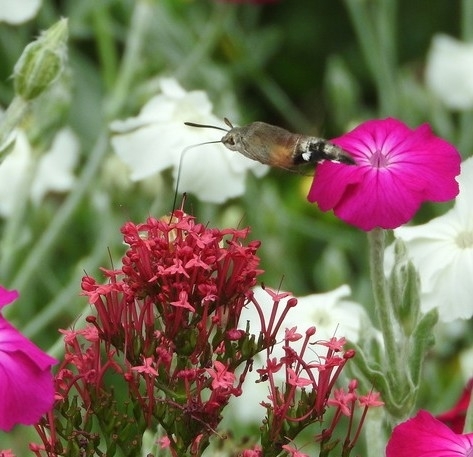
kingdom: Animalia
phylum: Arthropoda
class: Insecta
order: Lepidoptera
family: Sphingidae
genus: Macroglossum
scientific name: Macroglossum stellatarum
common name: Humming-bird hawk-moth
